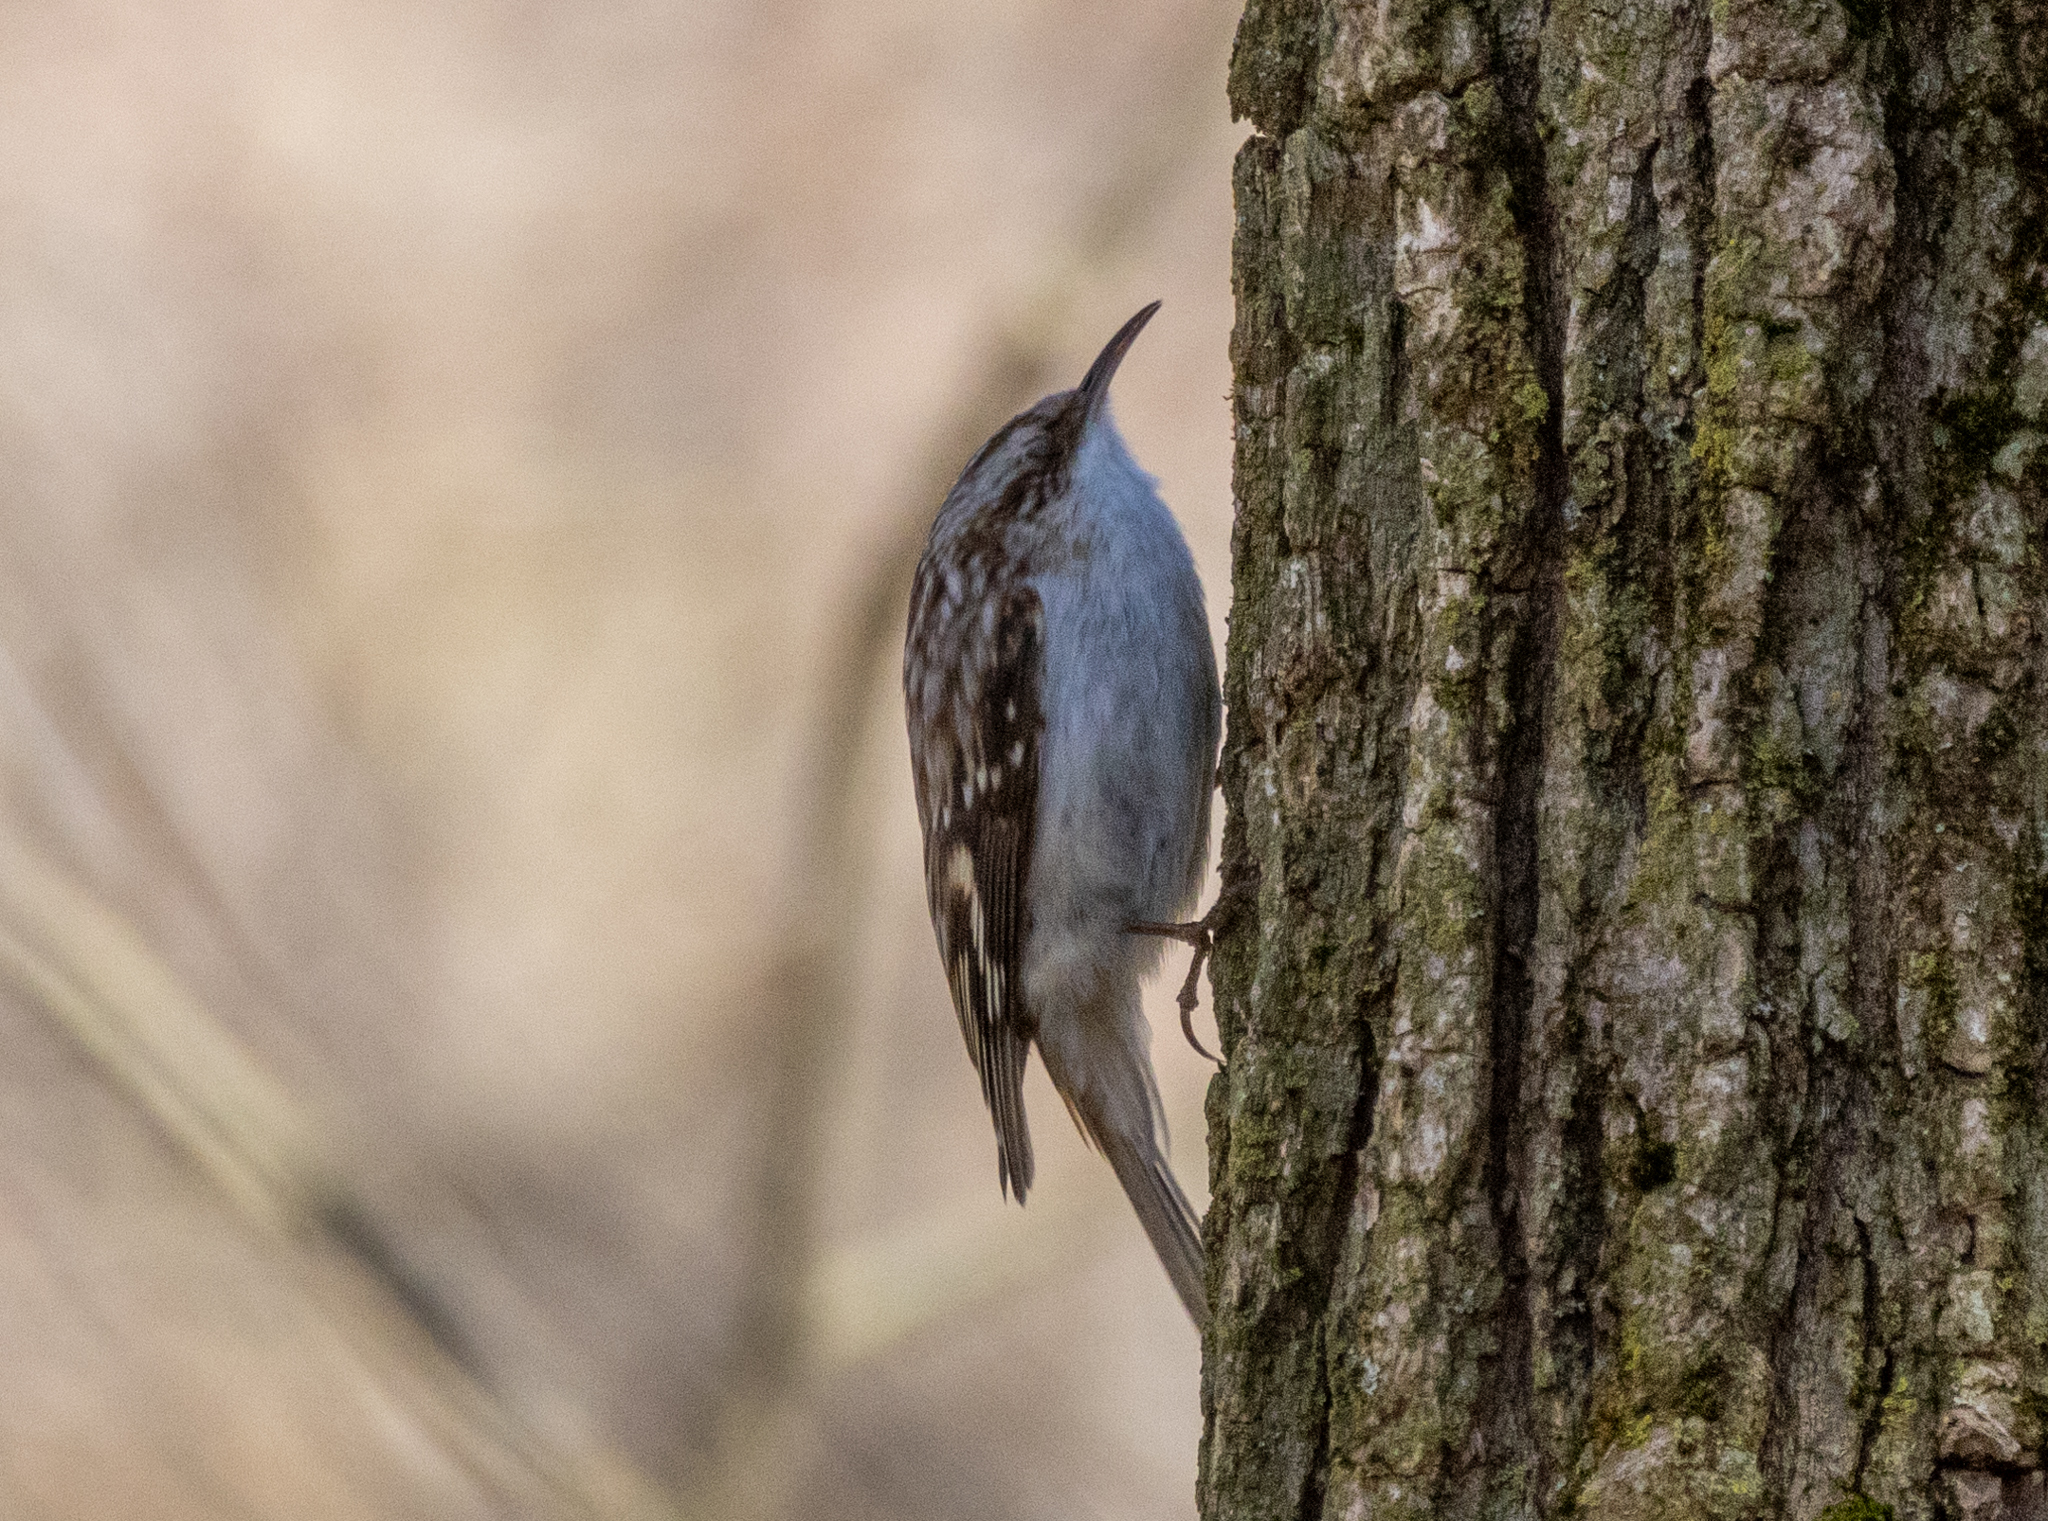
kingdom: Animalia
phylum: Chordata
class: Aves
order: Passeriformes
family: Certhiidae
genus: Certhia
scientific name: Certhia americana
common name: Brown creeper
